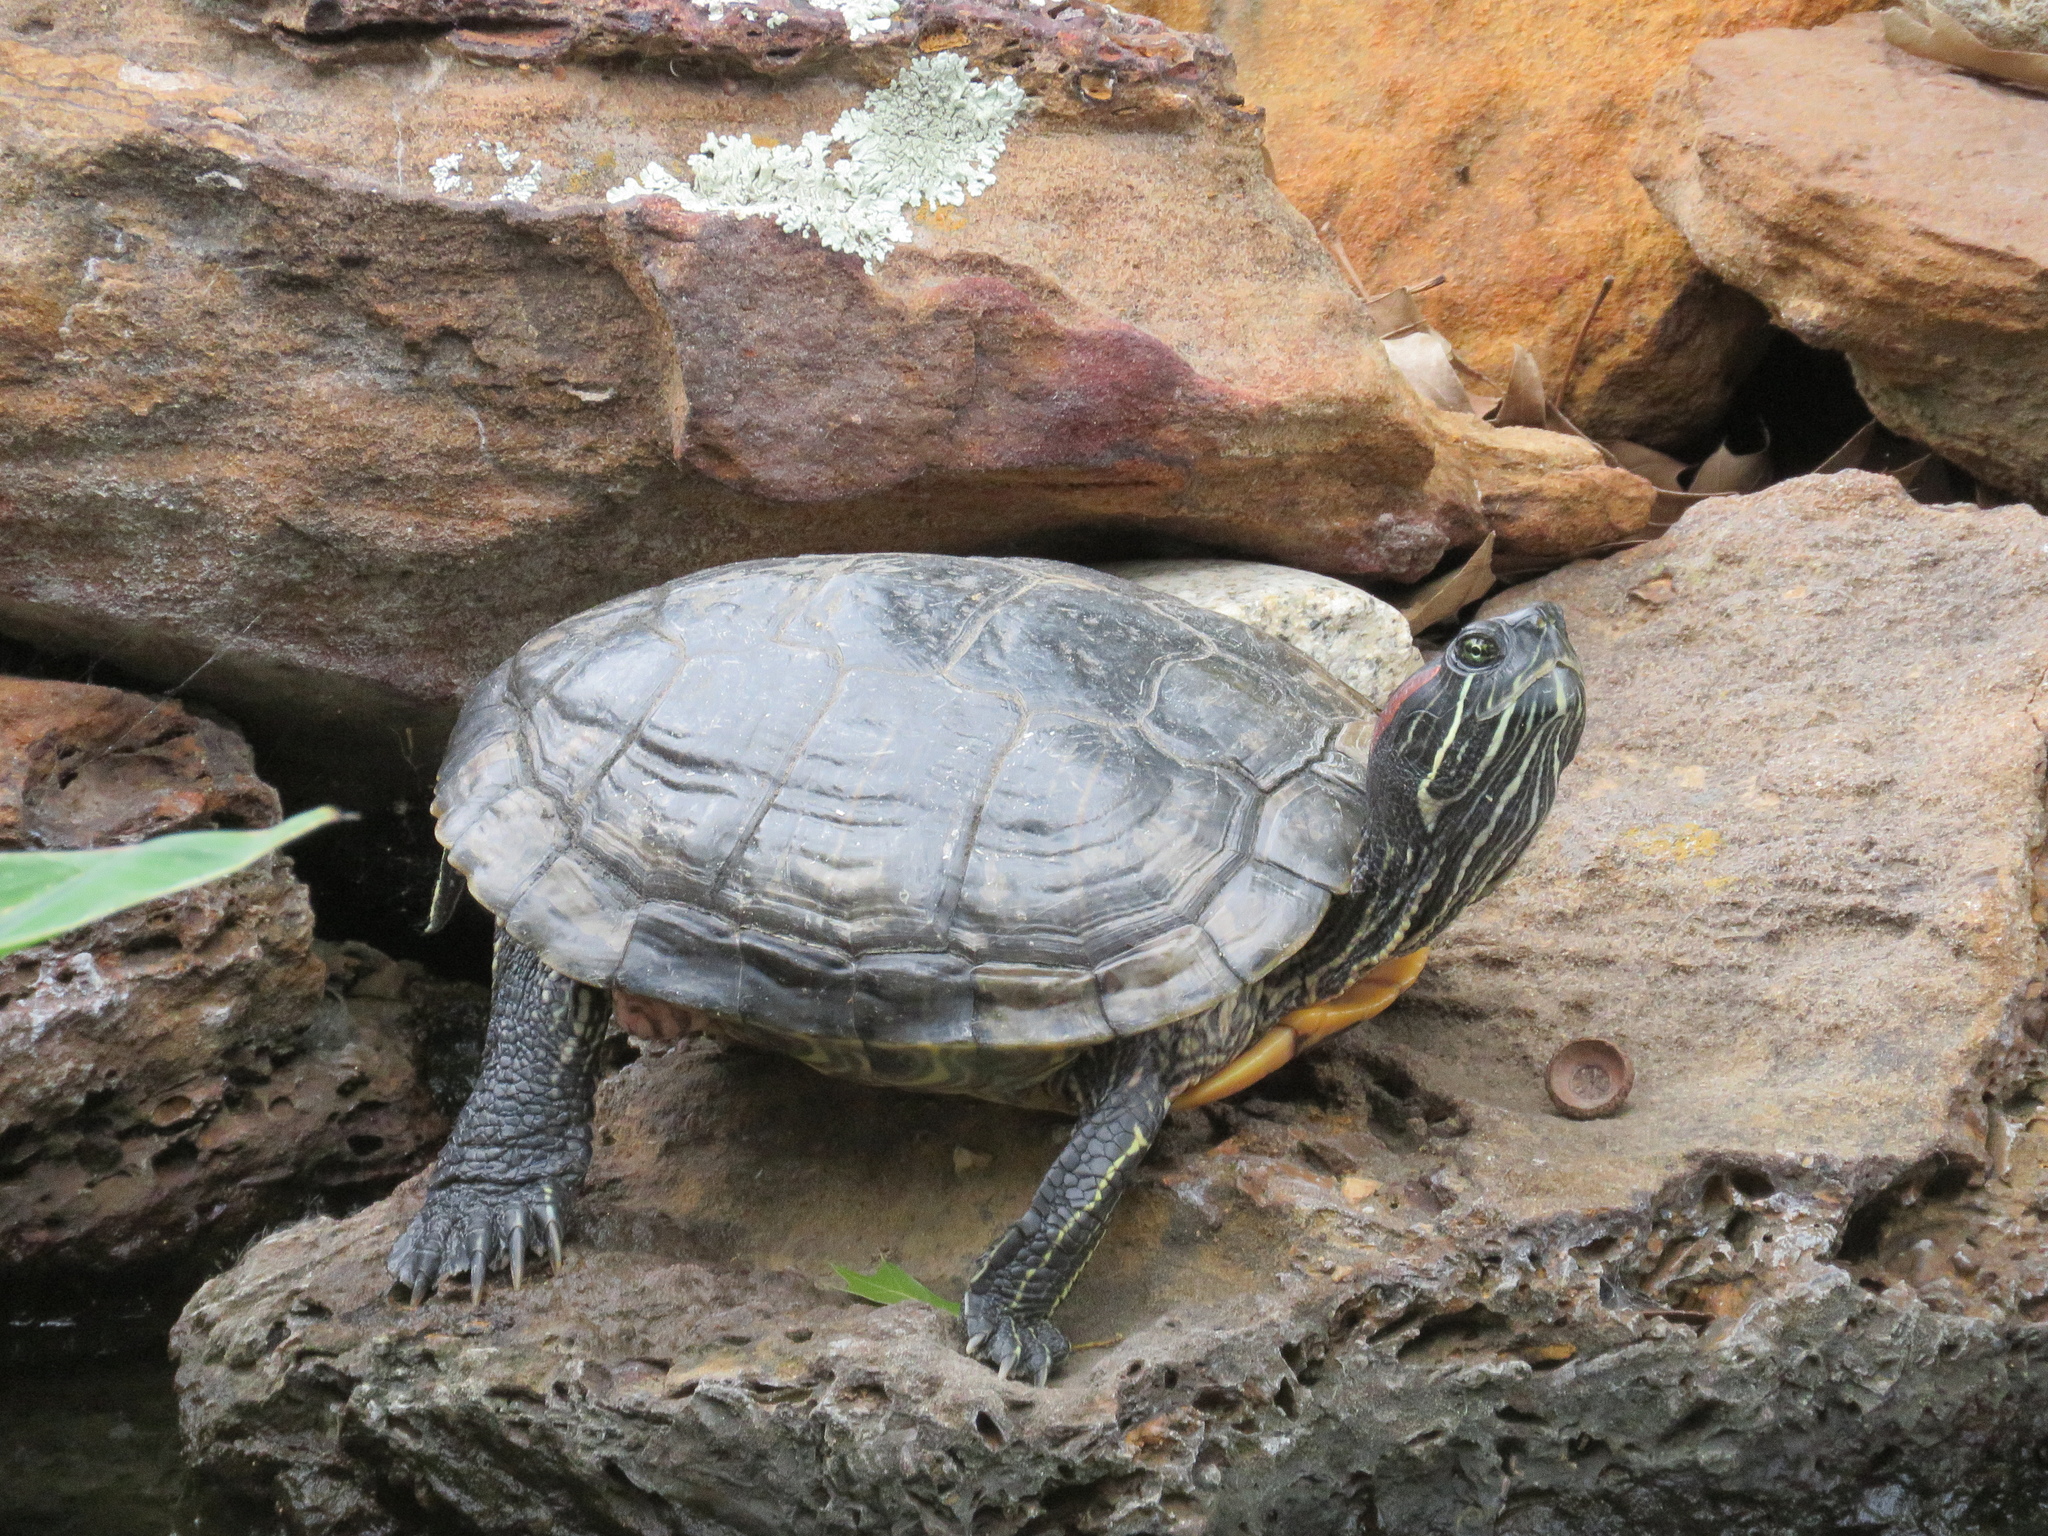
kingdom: Animalia
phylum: Chordata
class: Testudines
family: Emydidae
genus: Trachemys
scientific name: Trachemys scripta
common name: Slider
